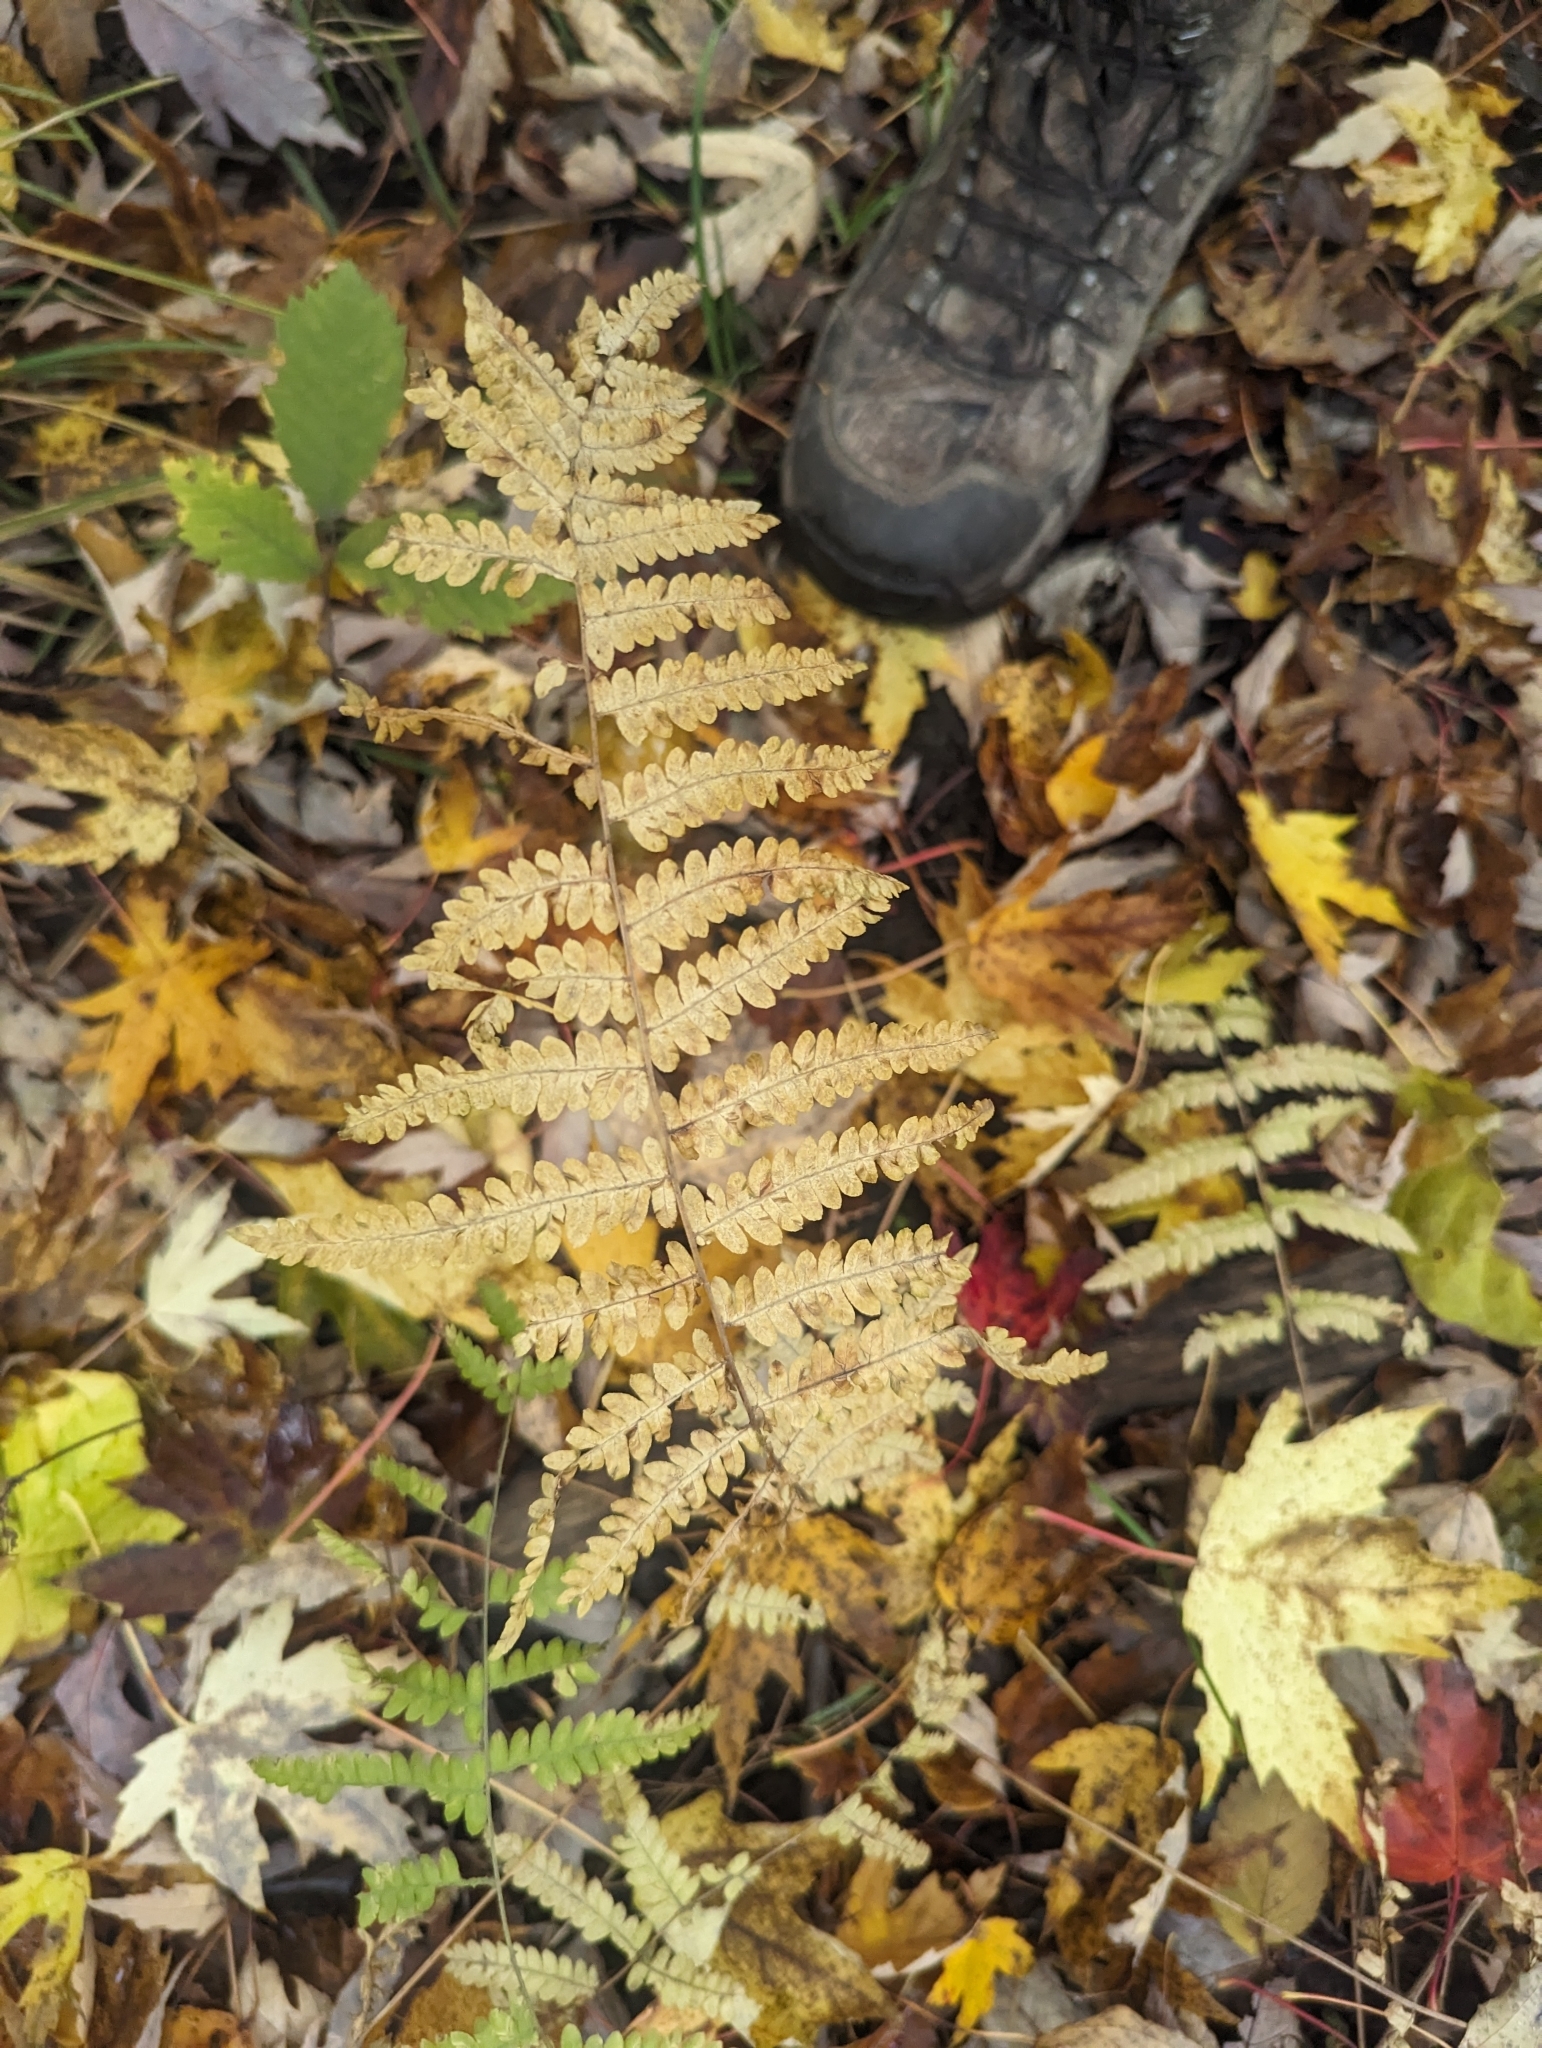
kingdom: Plantae
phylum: Tracheophyta
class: Polypodiopsida
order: Polypodiales
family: Thelypteridaceae
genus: Thelypteris
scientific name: Thelypteris palustris
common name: Marsh fern
